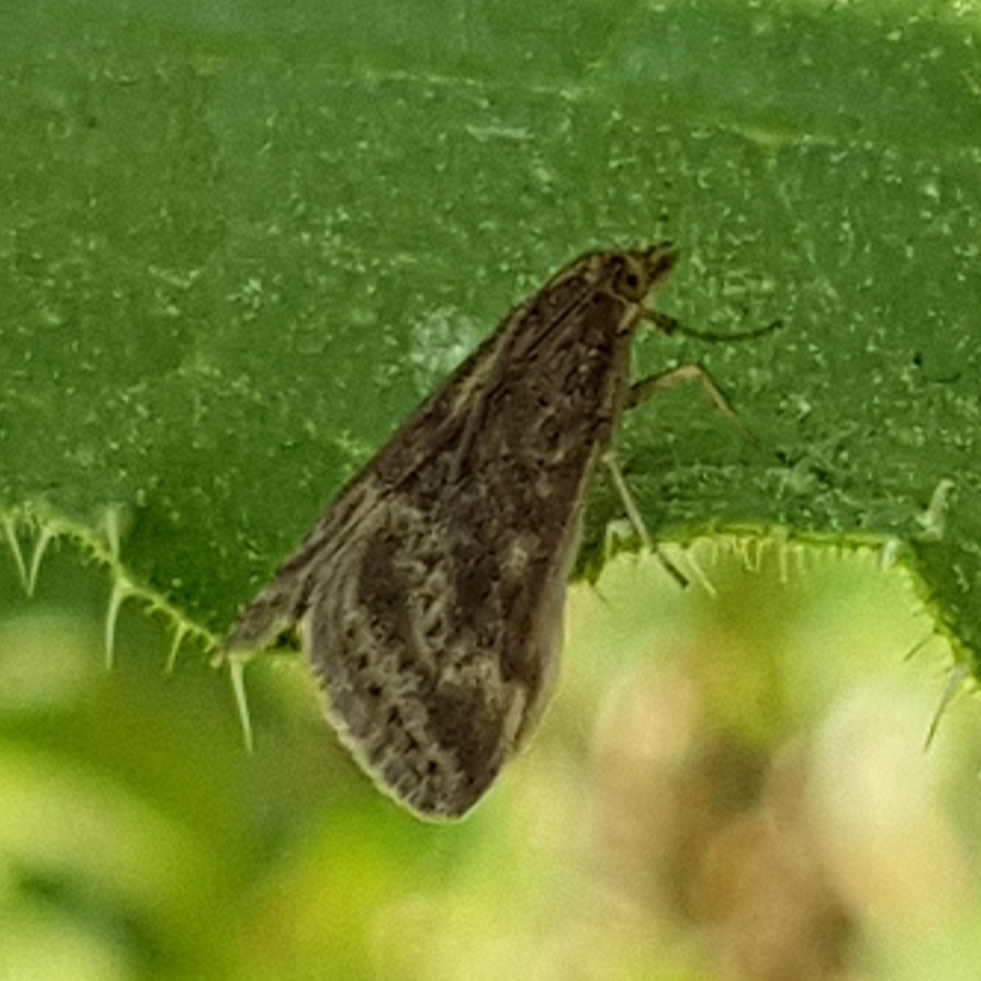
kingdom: Animalia
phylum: Arthropoda
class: Insecta
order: Lepidoptera
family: Crambidae
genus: Pyrausta
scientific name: Pyrausta despicata
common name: Straw-barred pearl
